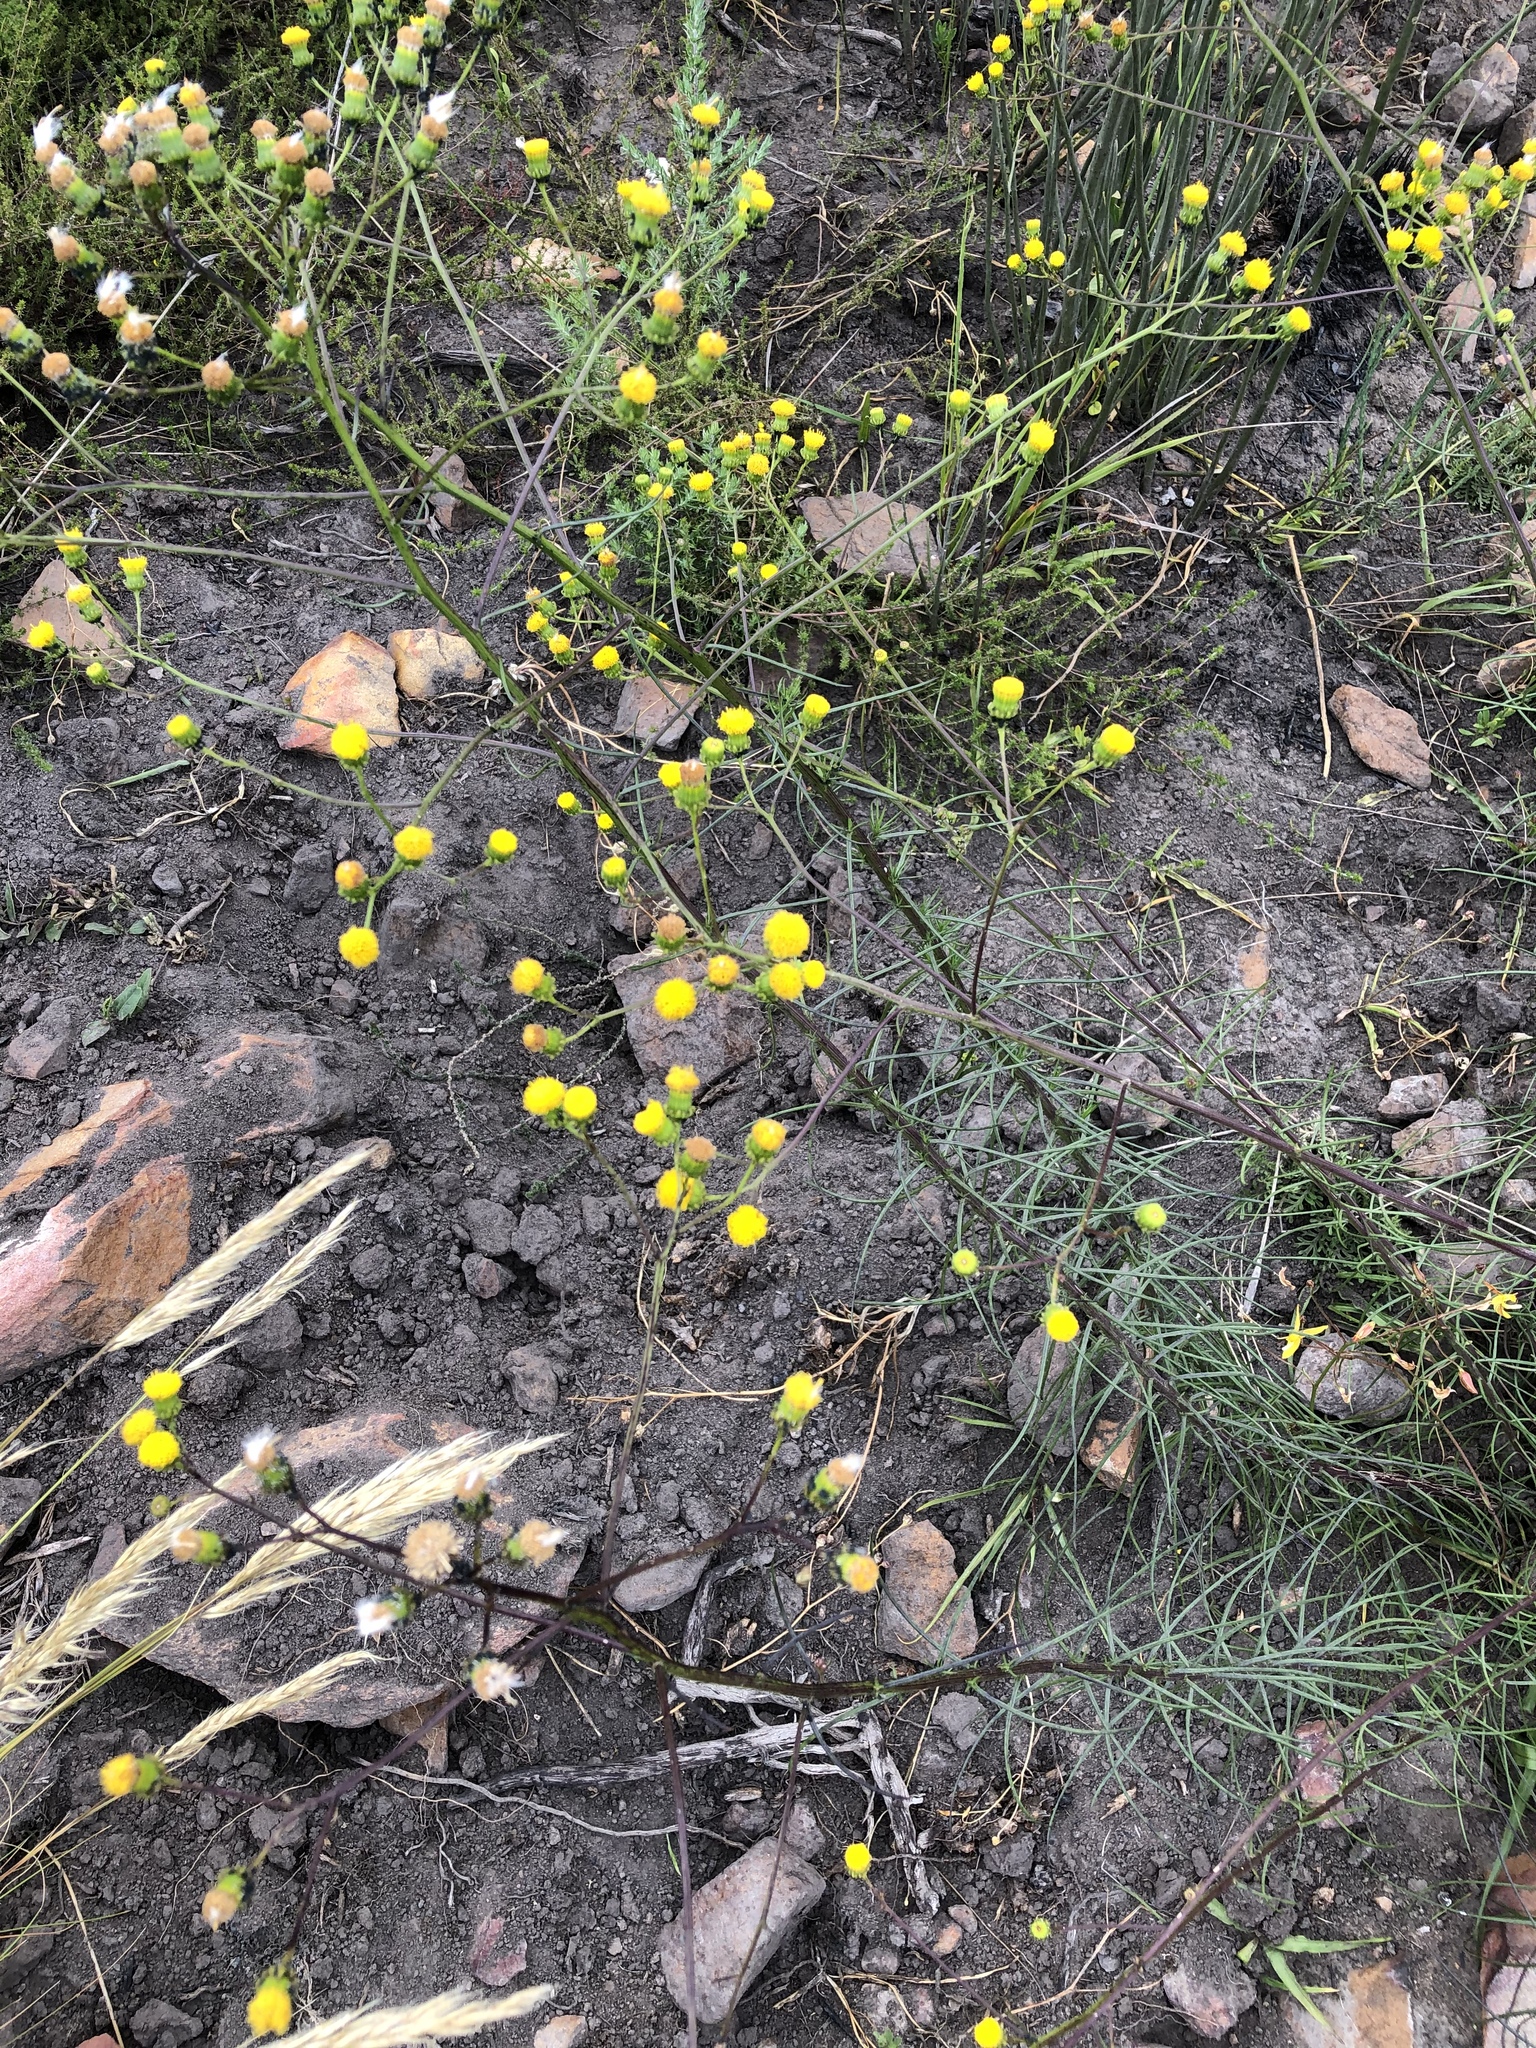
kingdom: Plantae
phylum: Tracheophyta
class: Magnoliopsida
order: Asterales
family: Asteraceae
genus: Senecio
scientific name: Senecio chrysocoma
